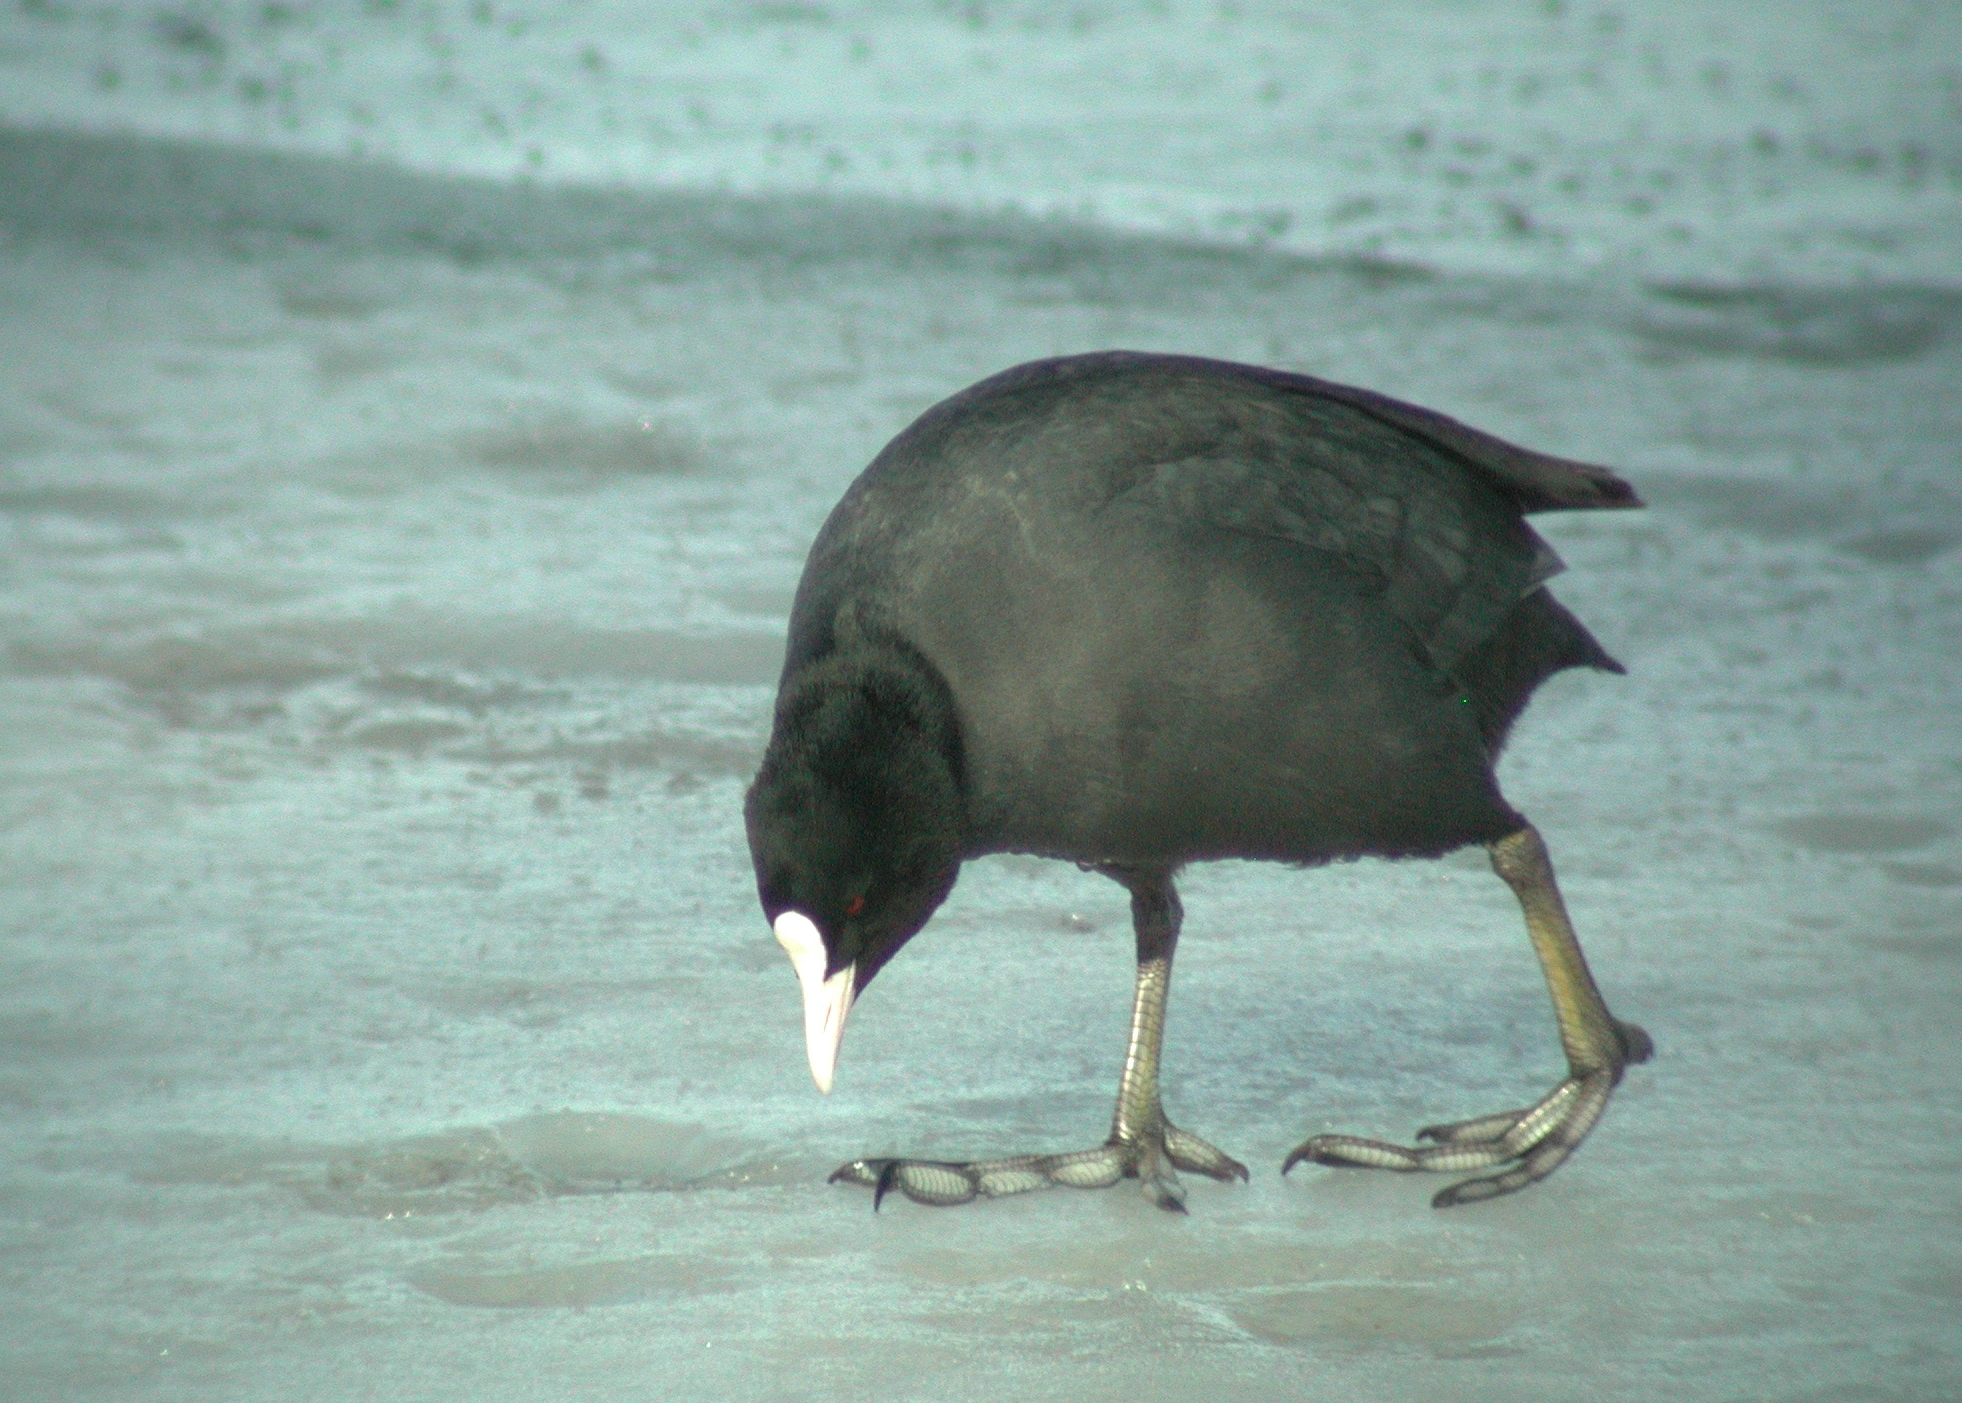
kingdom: Animalia
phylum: Chordata
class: Aves
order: Gruiformes
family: Rallidae
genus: Fulica
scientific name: Fulica atra
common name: Eurasian coot
